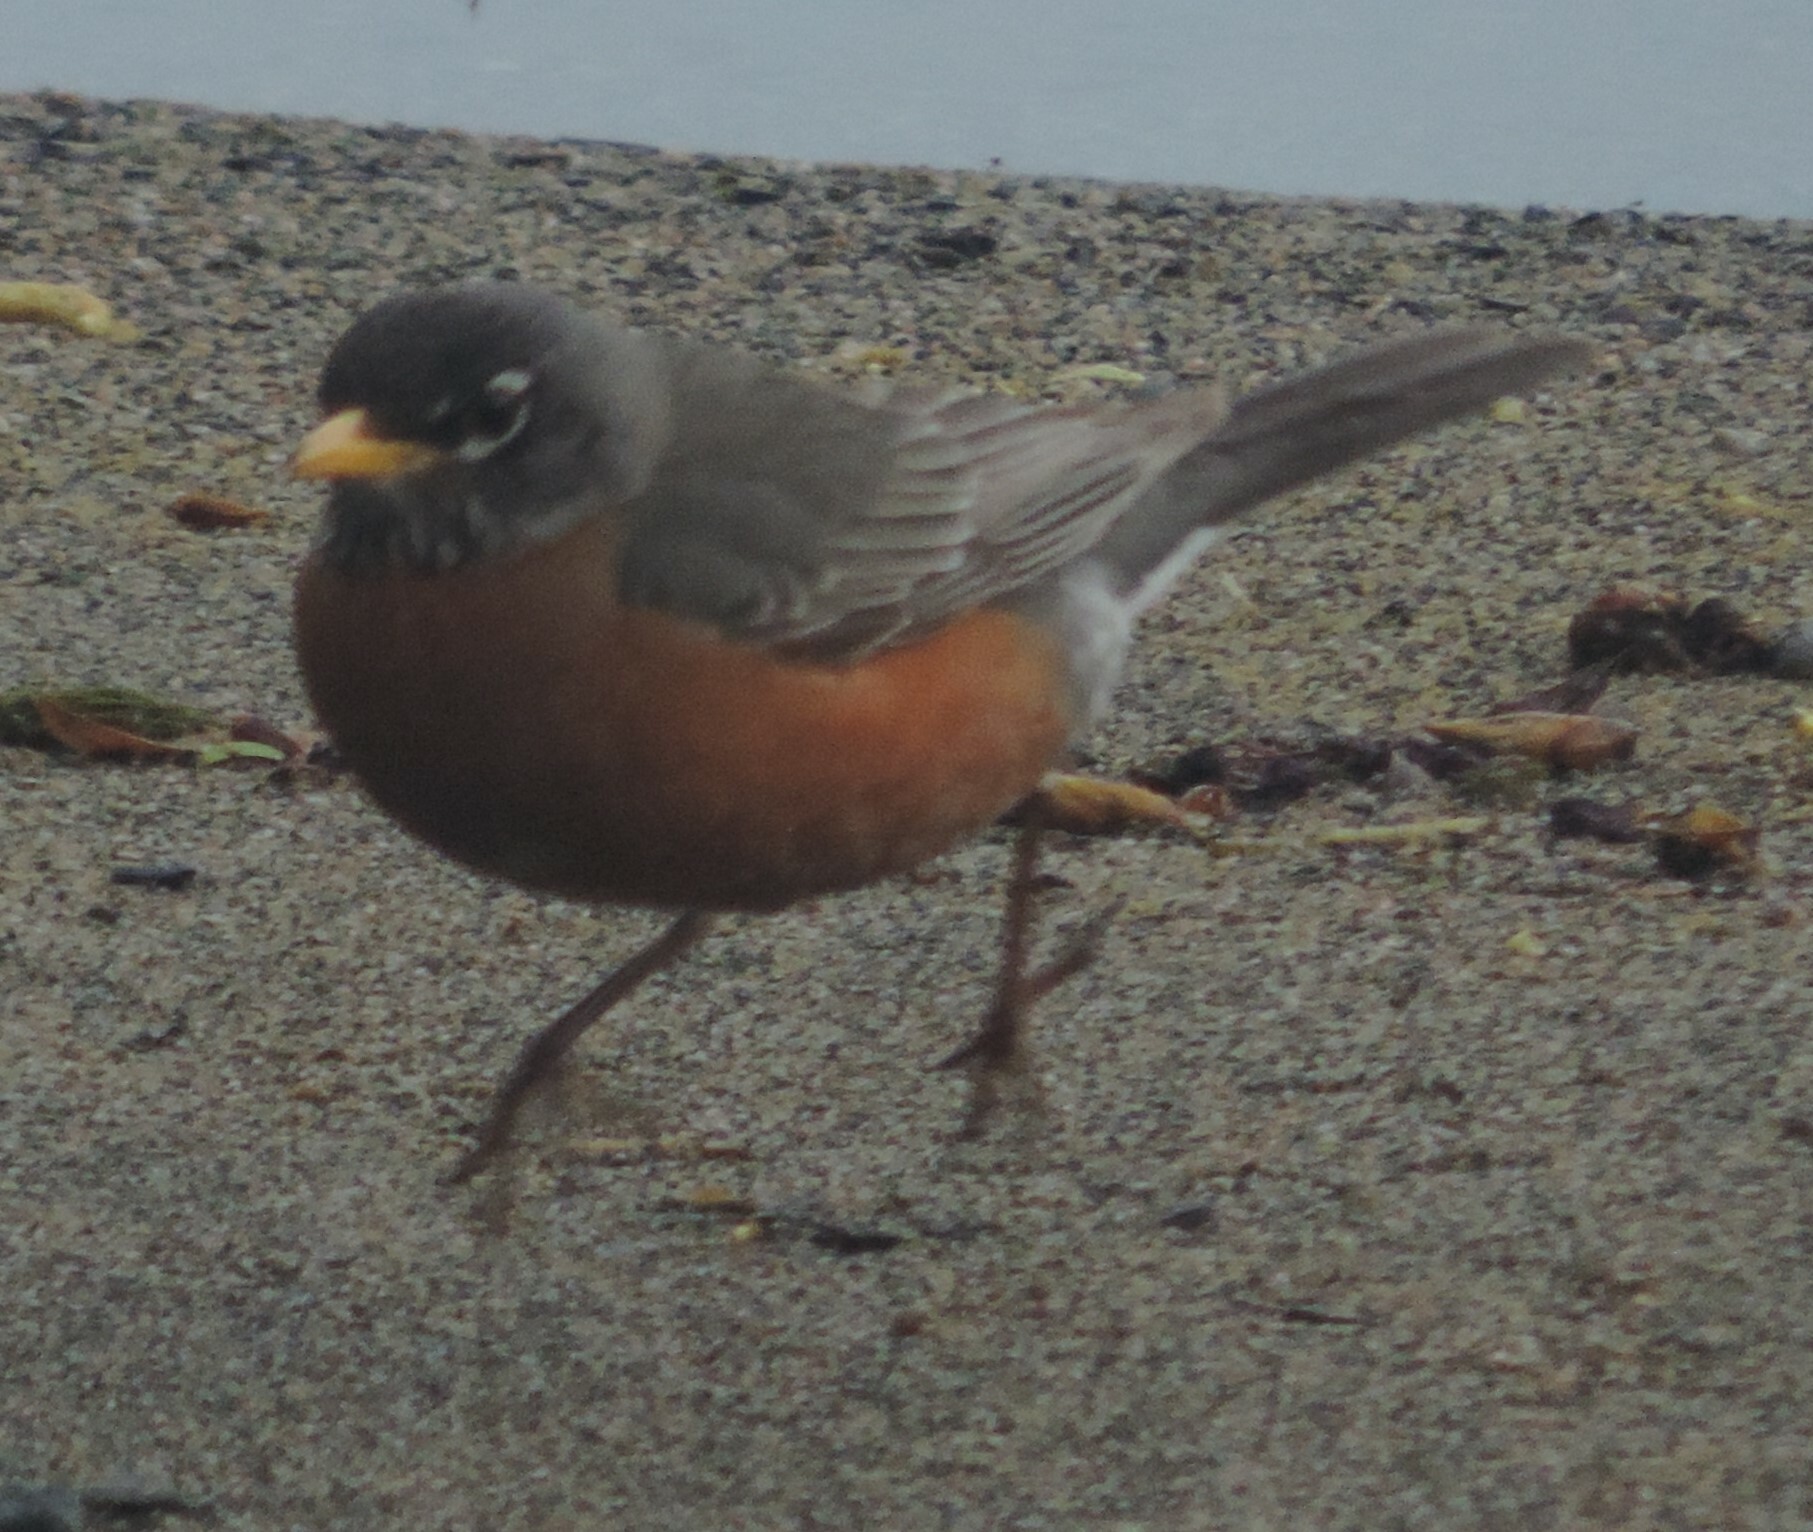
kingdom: Animalia
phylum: Chordata
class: Aves
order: Passeriformes
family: Turdidae
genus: Turdus
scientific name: Turdus migratorius
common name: American robin
